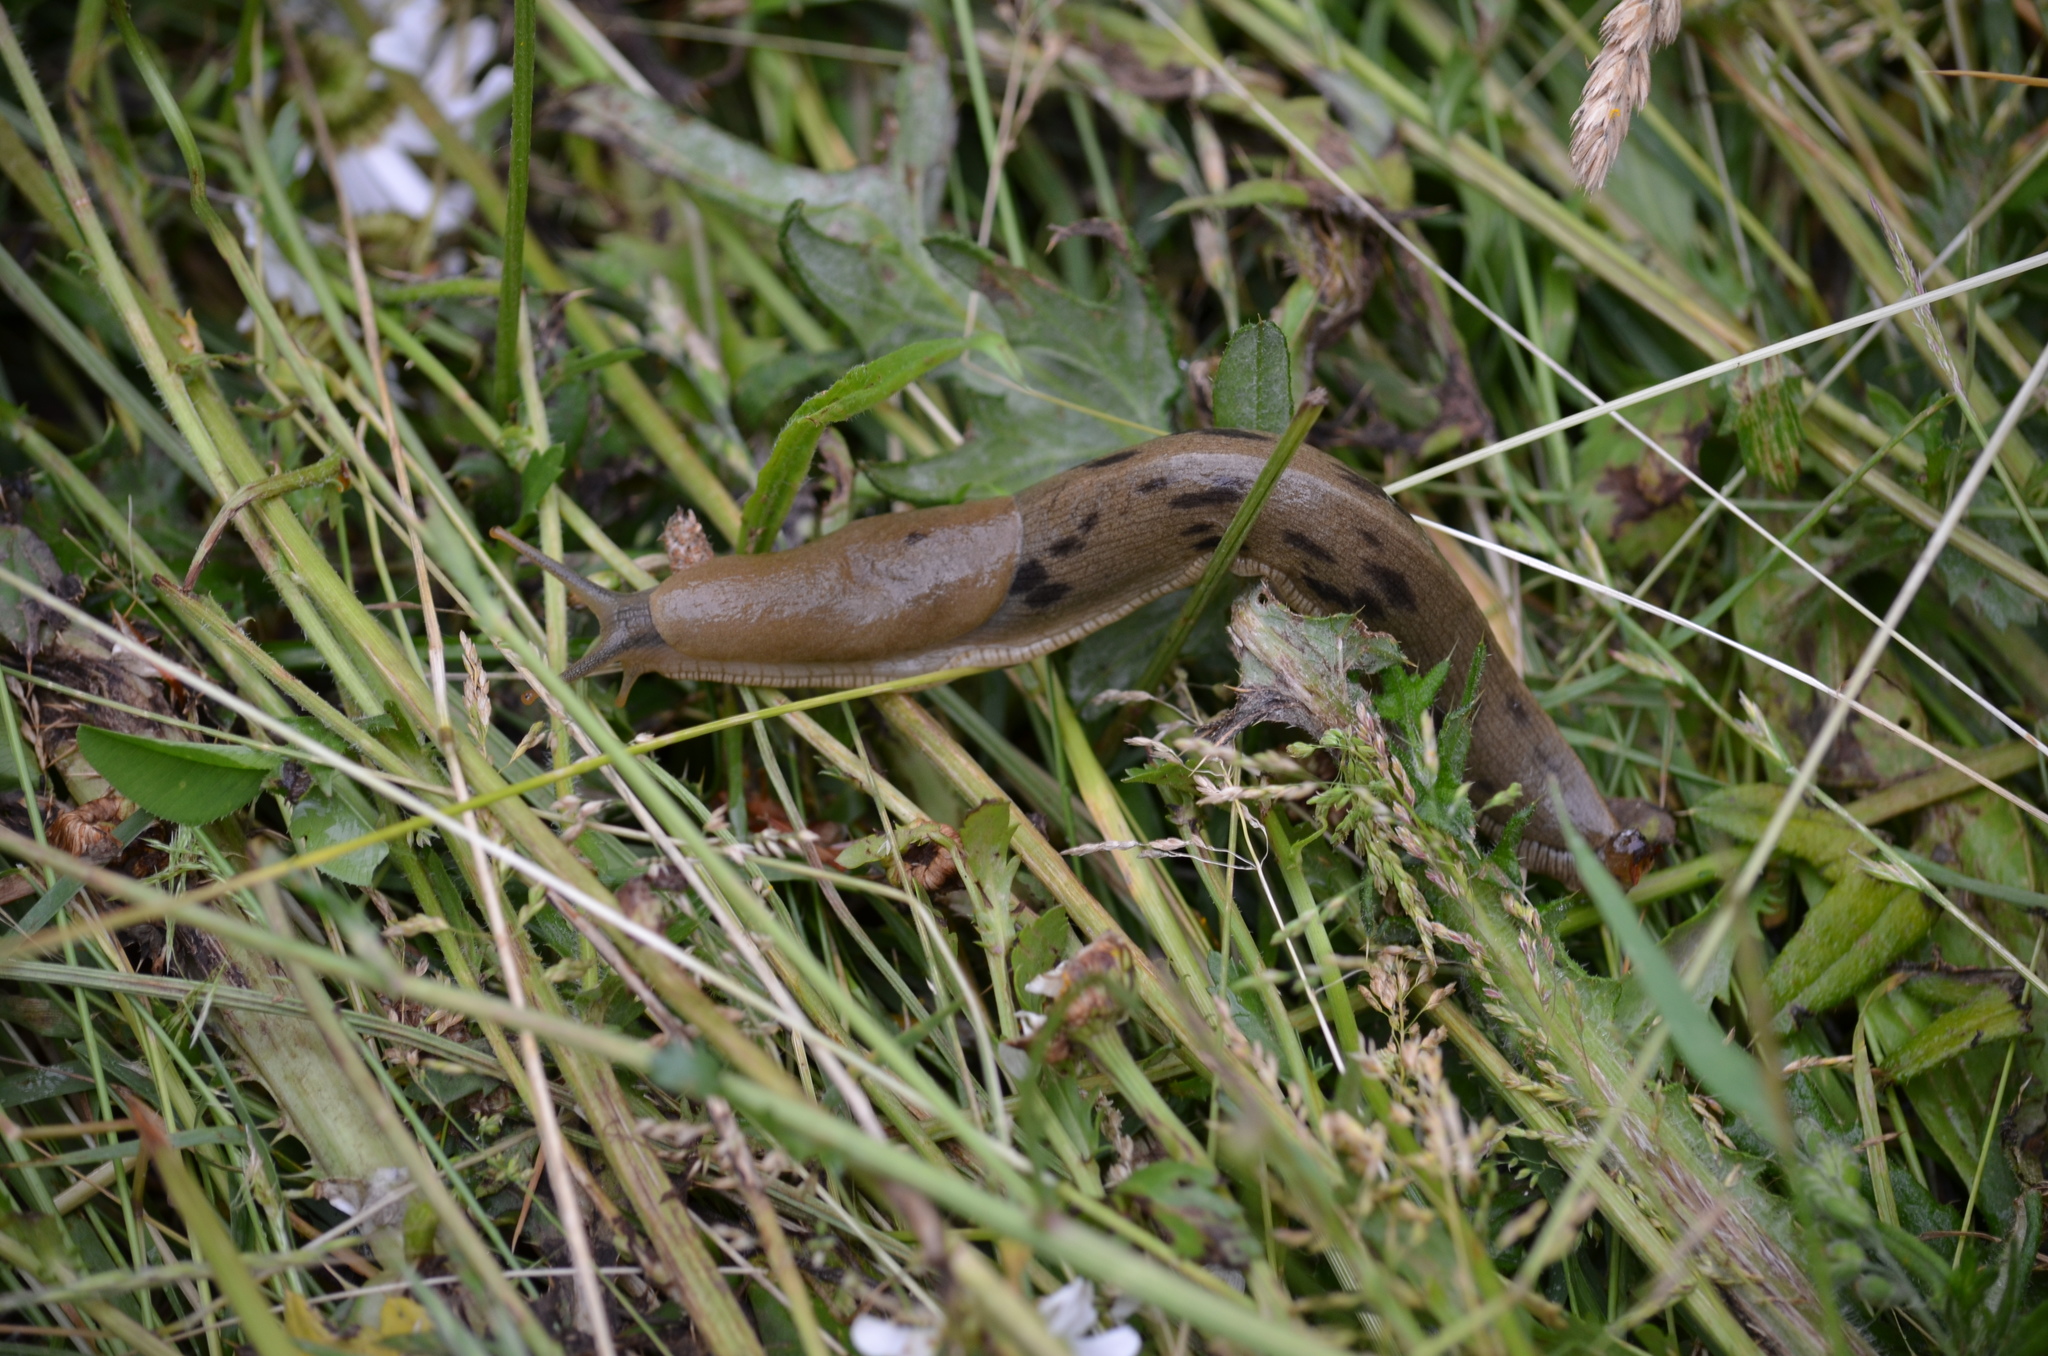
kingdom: Animalia
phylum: Mollusca
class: Gastropoda
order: Stylommatophora
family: Ariolimacidae
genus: Ariolimax
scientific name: Ariolimax columbianus
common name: Pacific banana slug
